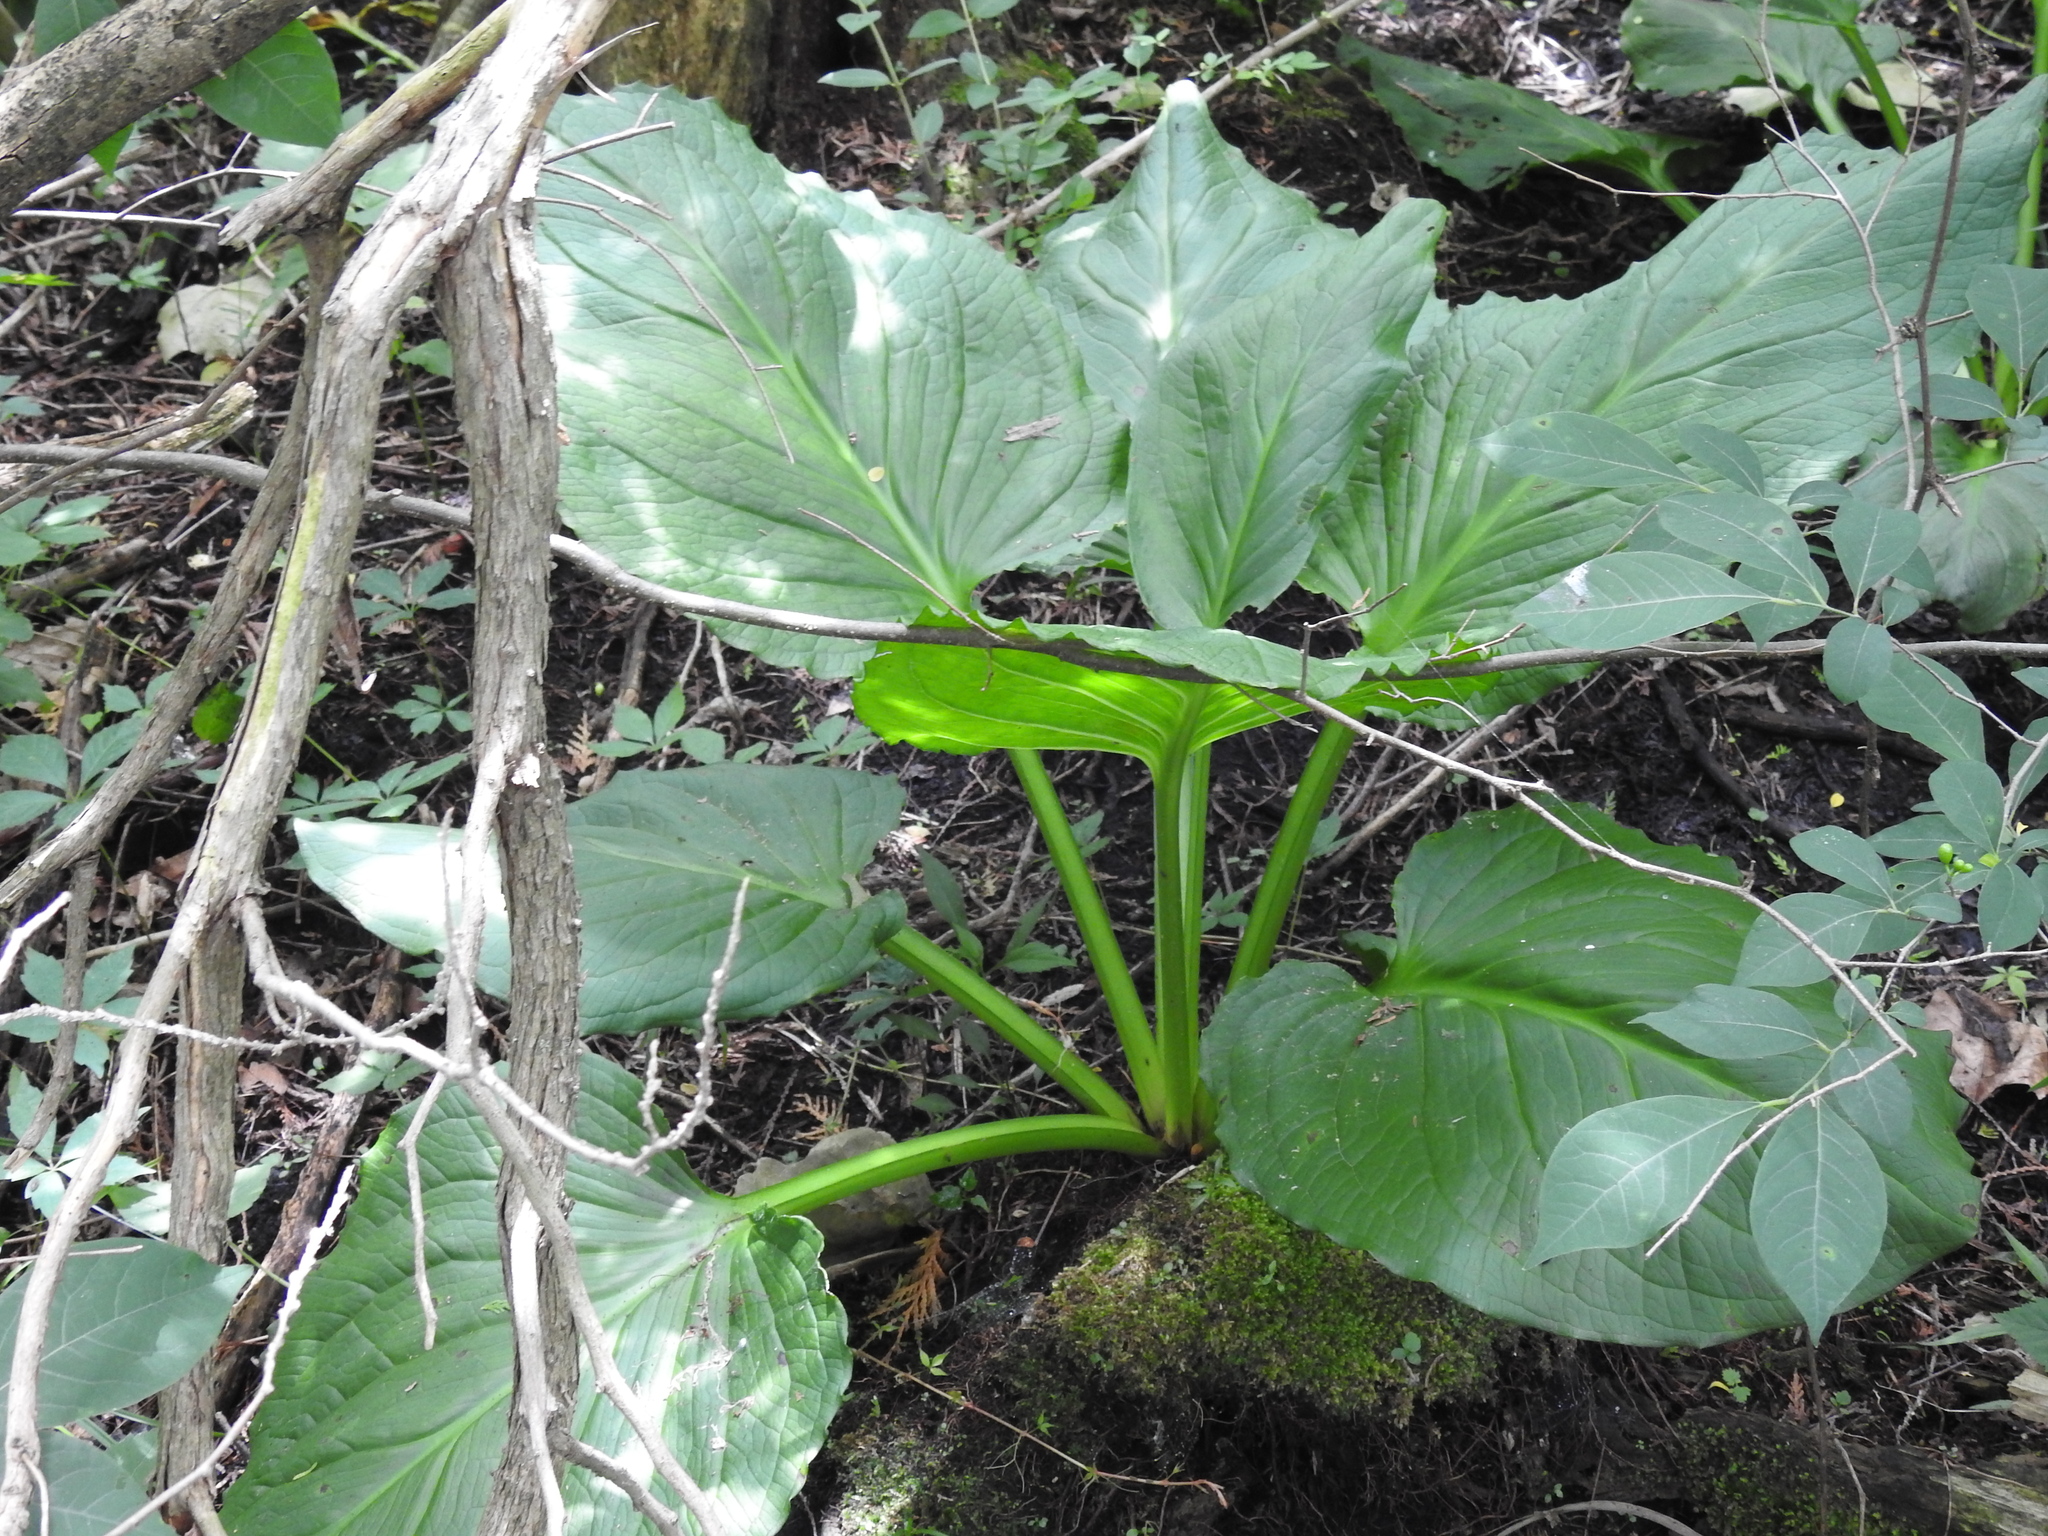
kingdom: Plantae
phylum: Tracheophyta
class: Liliopsida
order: Alismatales
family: Araceae
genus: Symplocarpus
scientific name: Symplocarpus foetidus
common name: Eastern skunk cabbage
